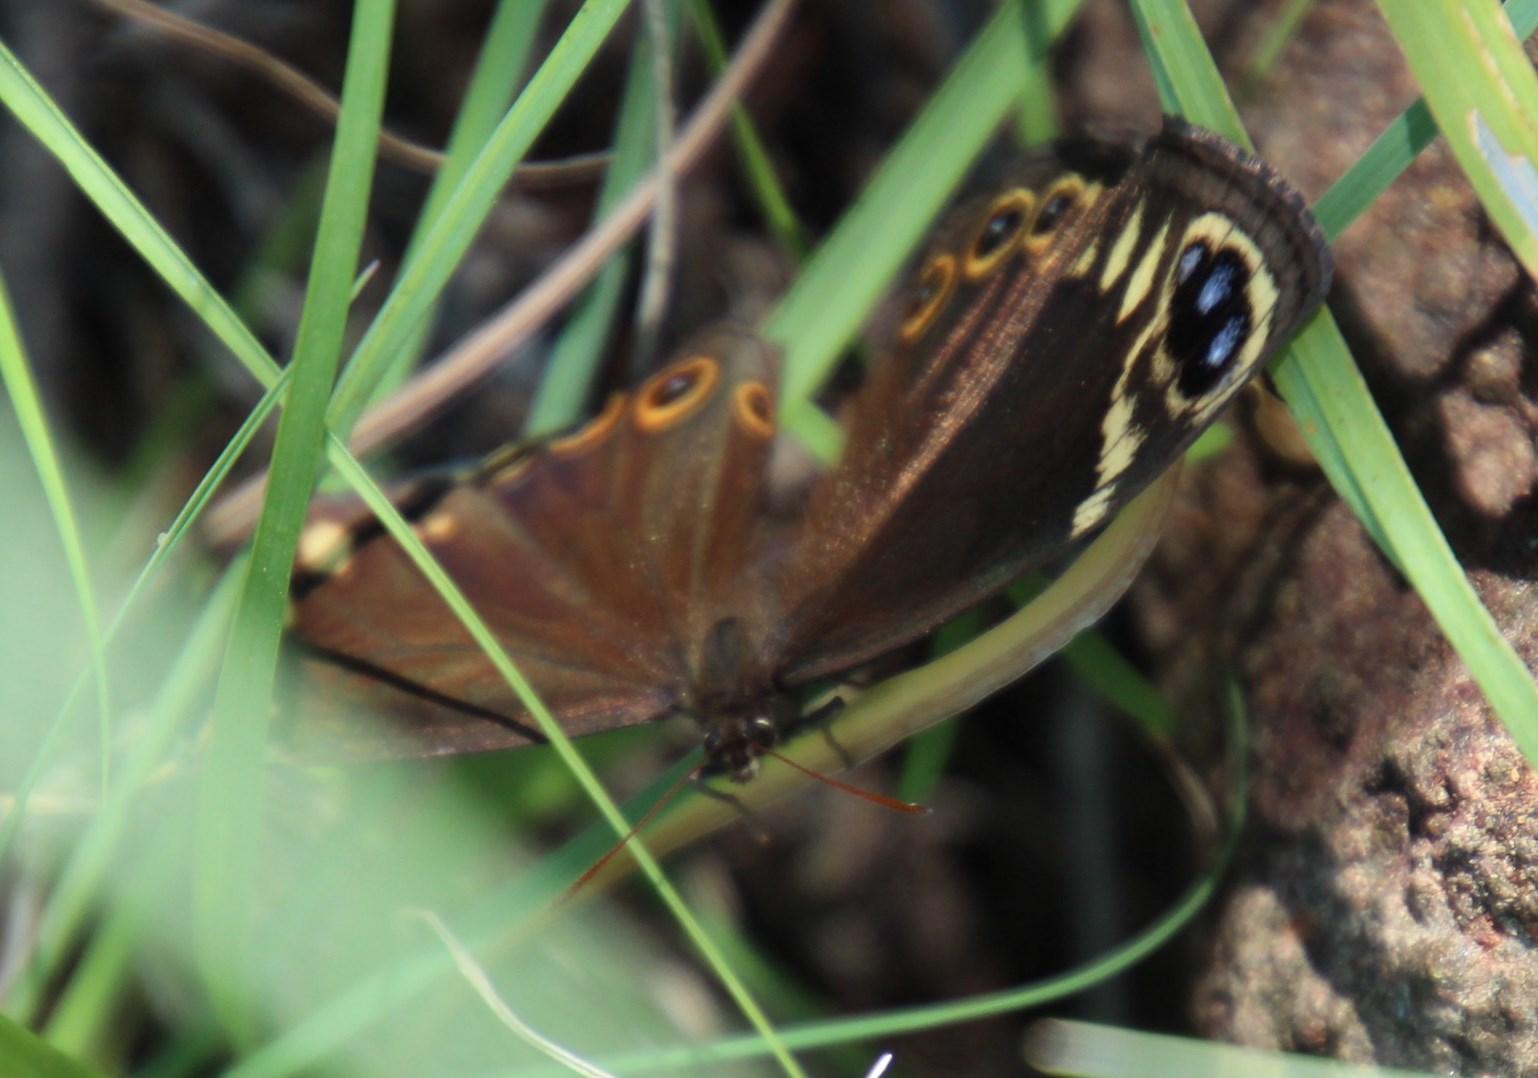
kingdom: Animalia
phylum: Arthropoda
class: Insecta
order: Lepidoptera
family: Nymphalidae
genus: Dira
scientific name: Dira oxylus
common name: Pondoland widow
